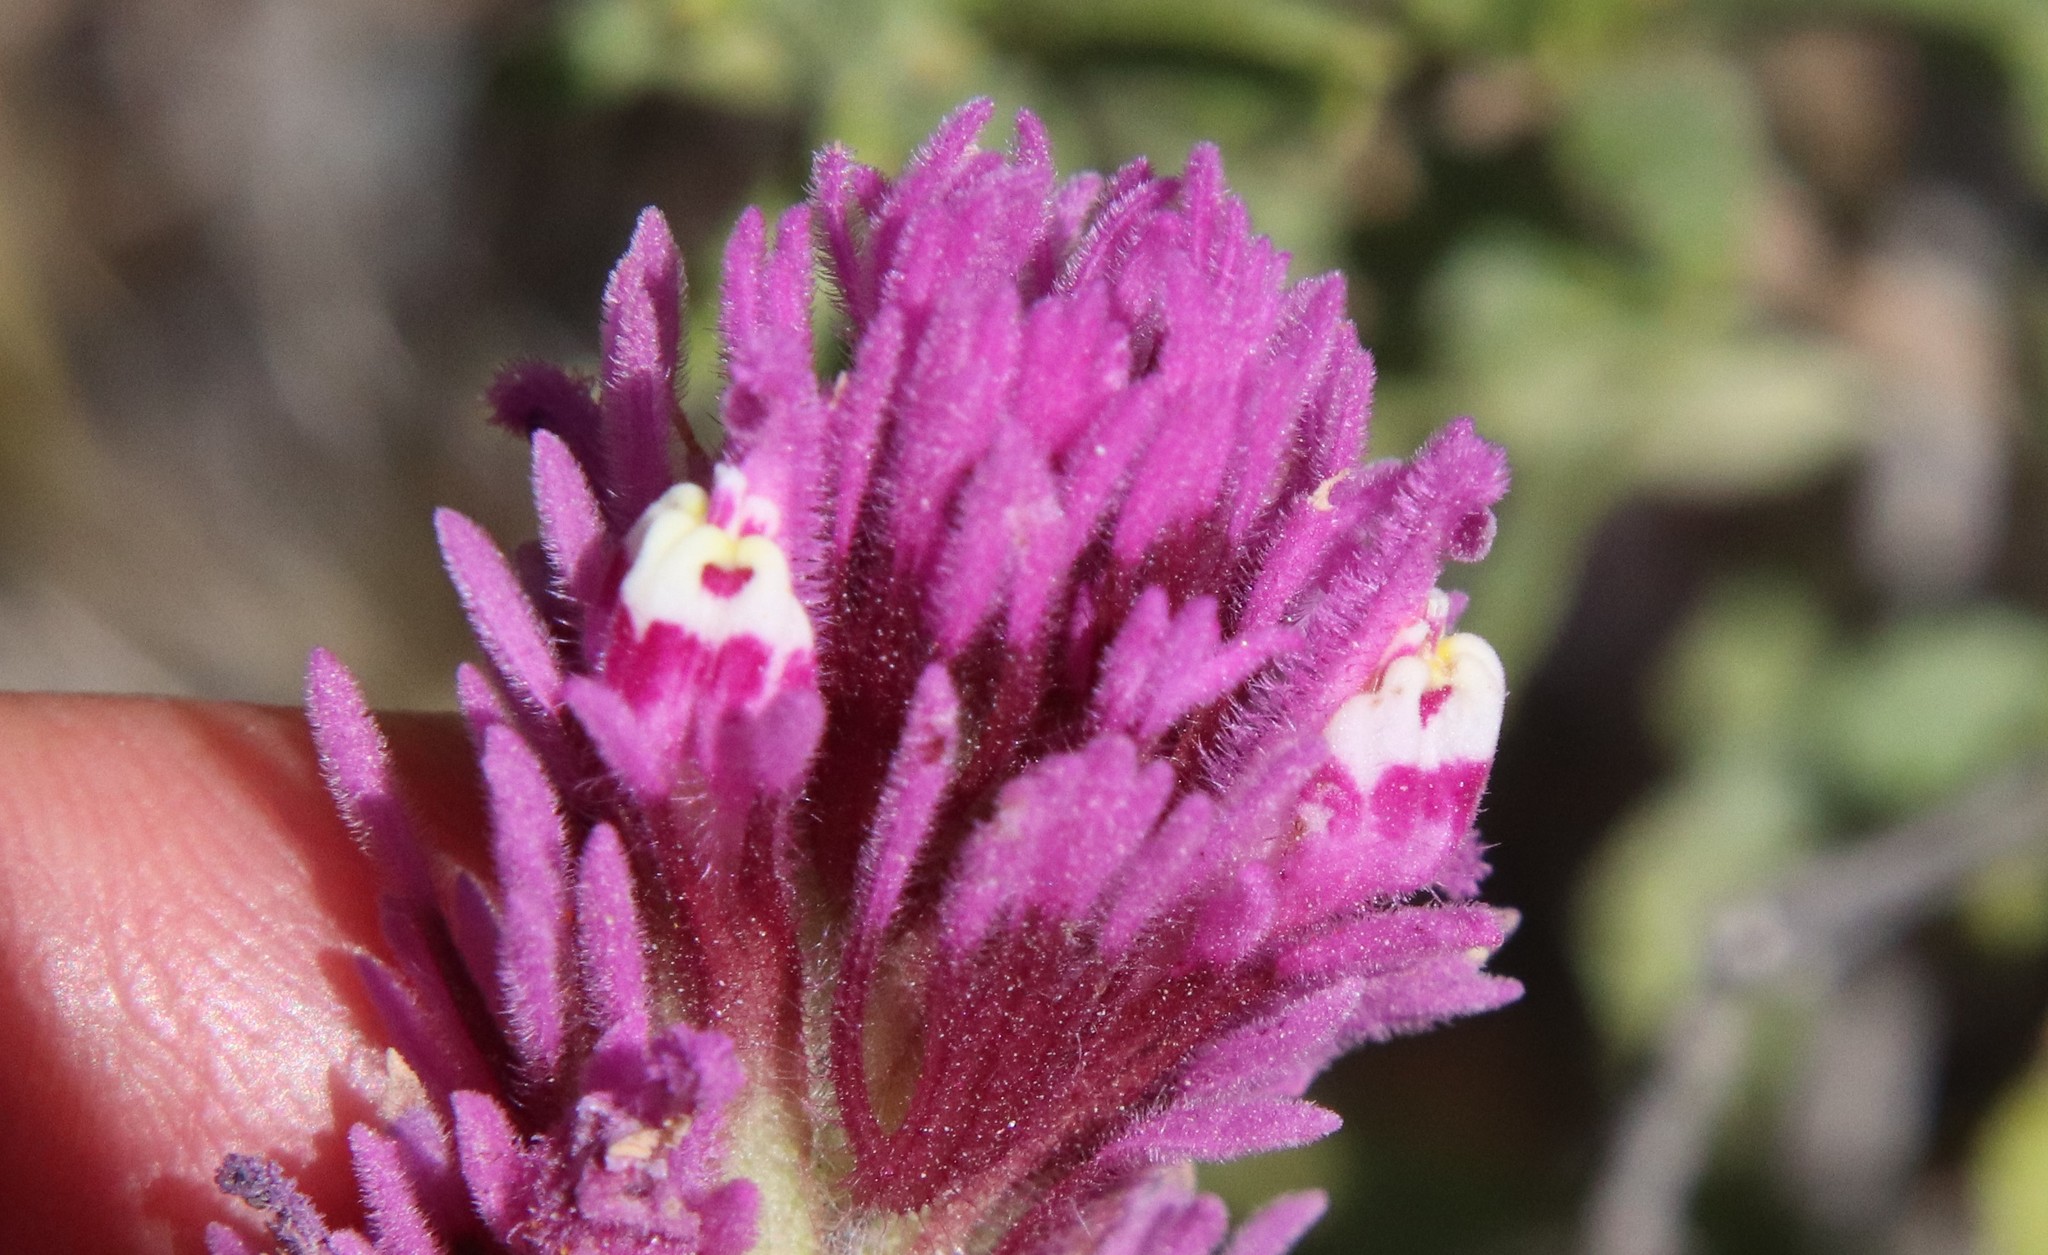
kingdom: Plantae
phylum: Tracheophyta
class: Magnoliopsida
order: Lamiales
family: Orobanchaceae
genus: Castilleja
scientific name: Castilleja exserta
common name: Purple owl-clover
